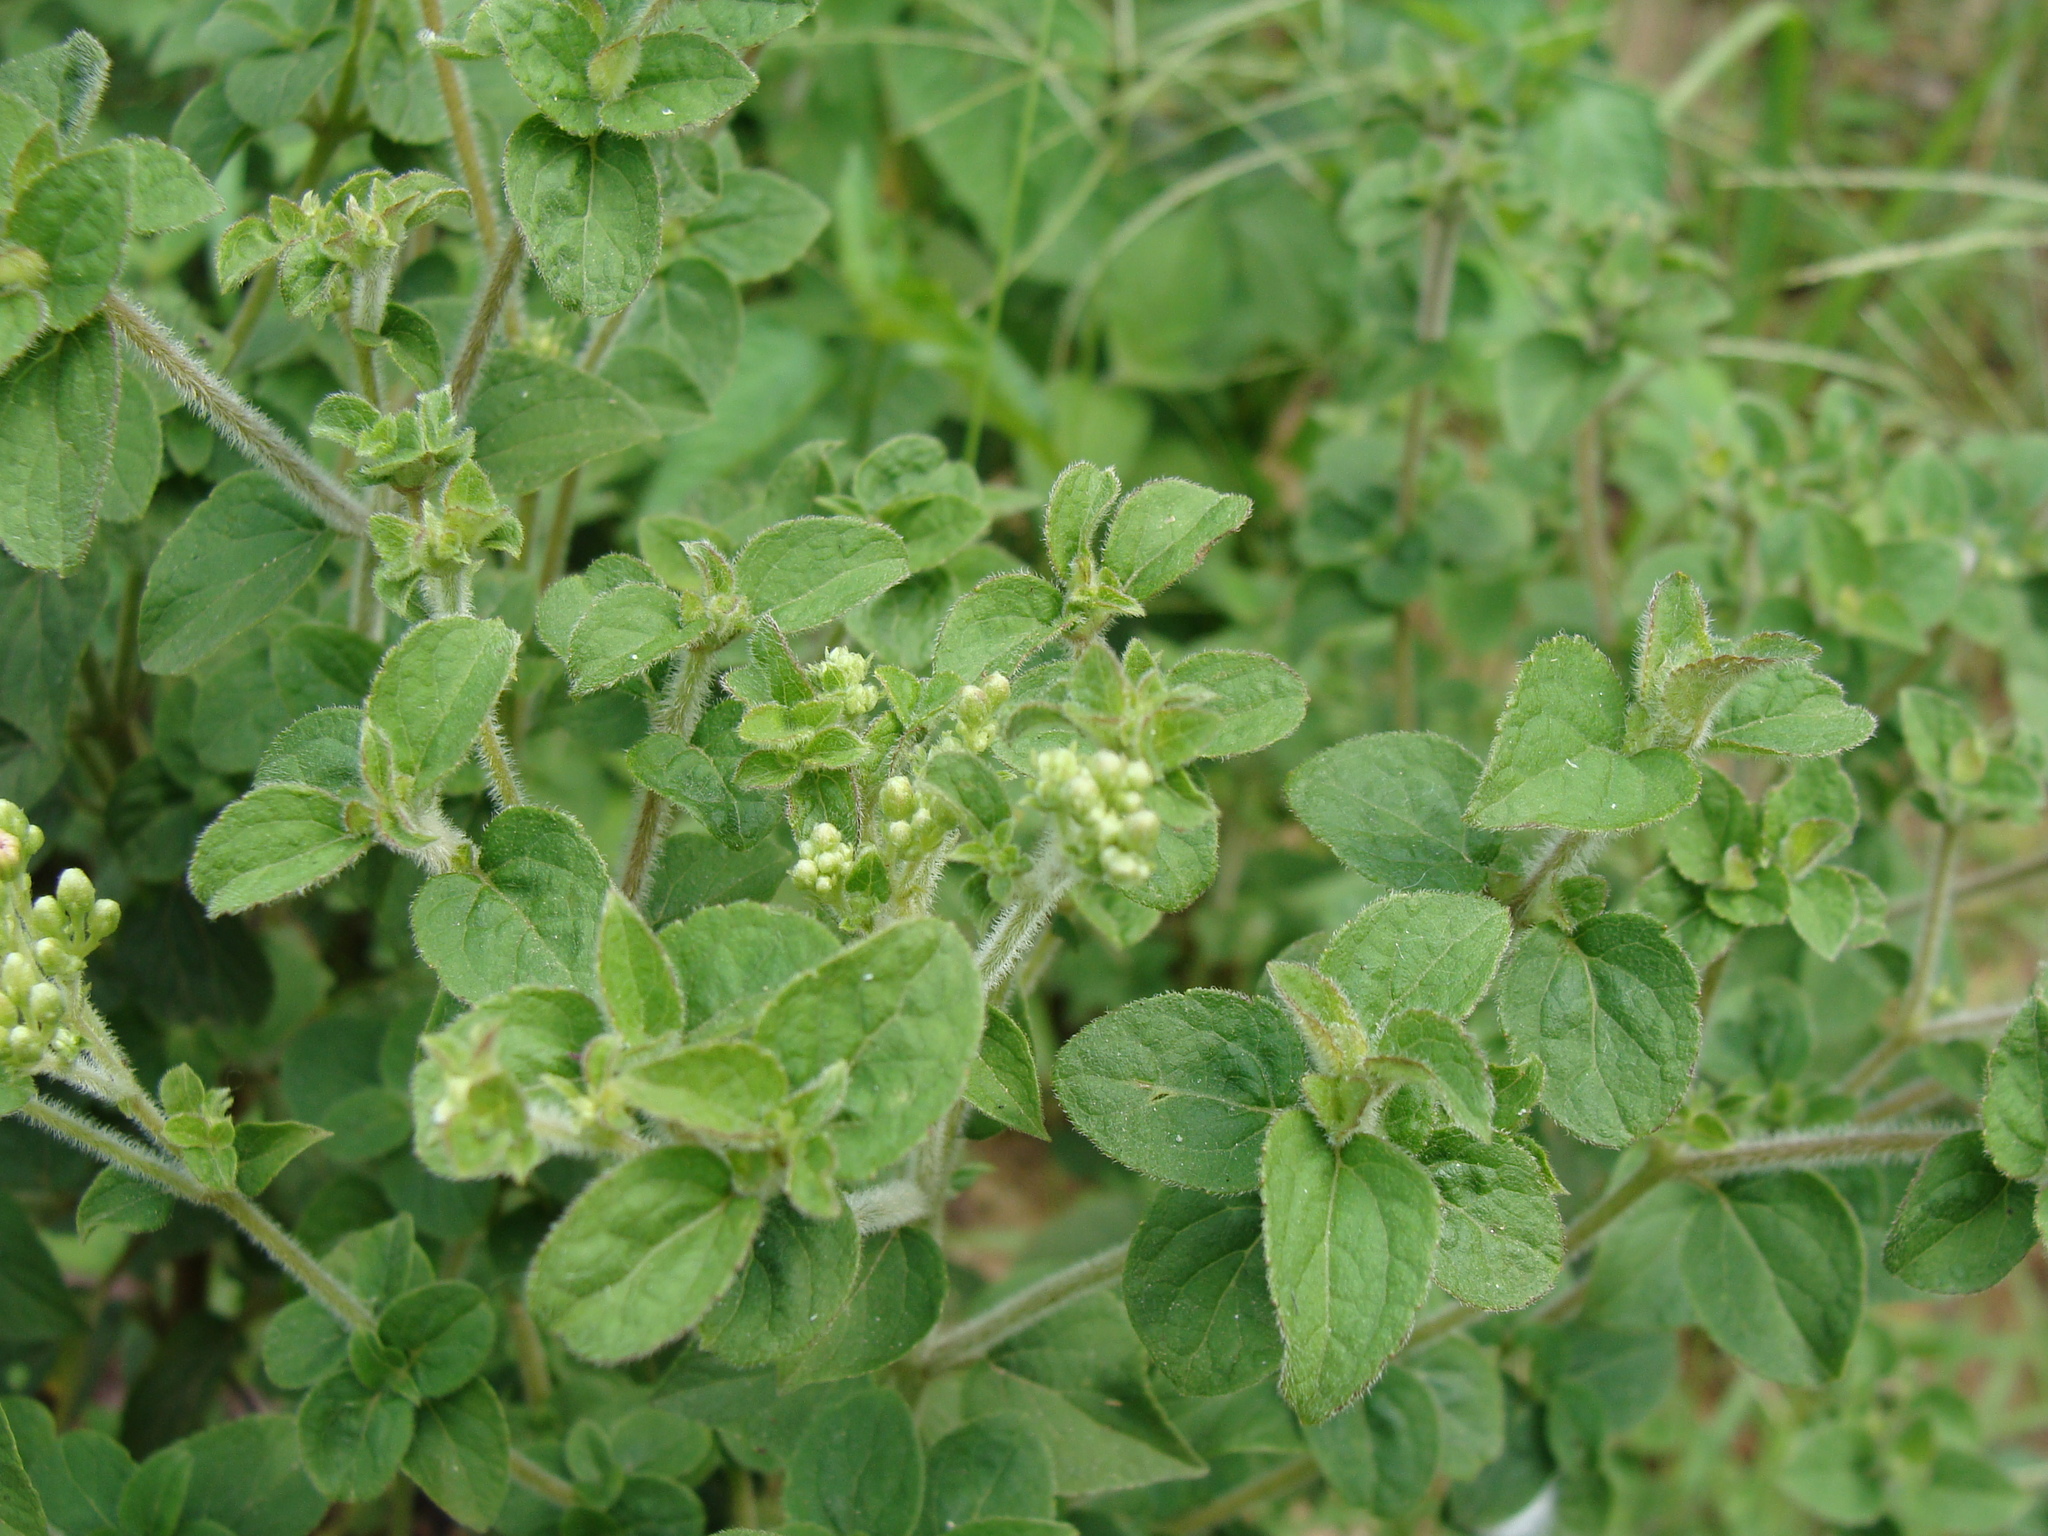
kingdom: Plantae
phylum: Tracheophyta
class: Magnoliopsida
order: Asterales
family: Asteraceae
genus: Ageratina
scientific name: Ageratina pichinchensis
